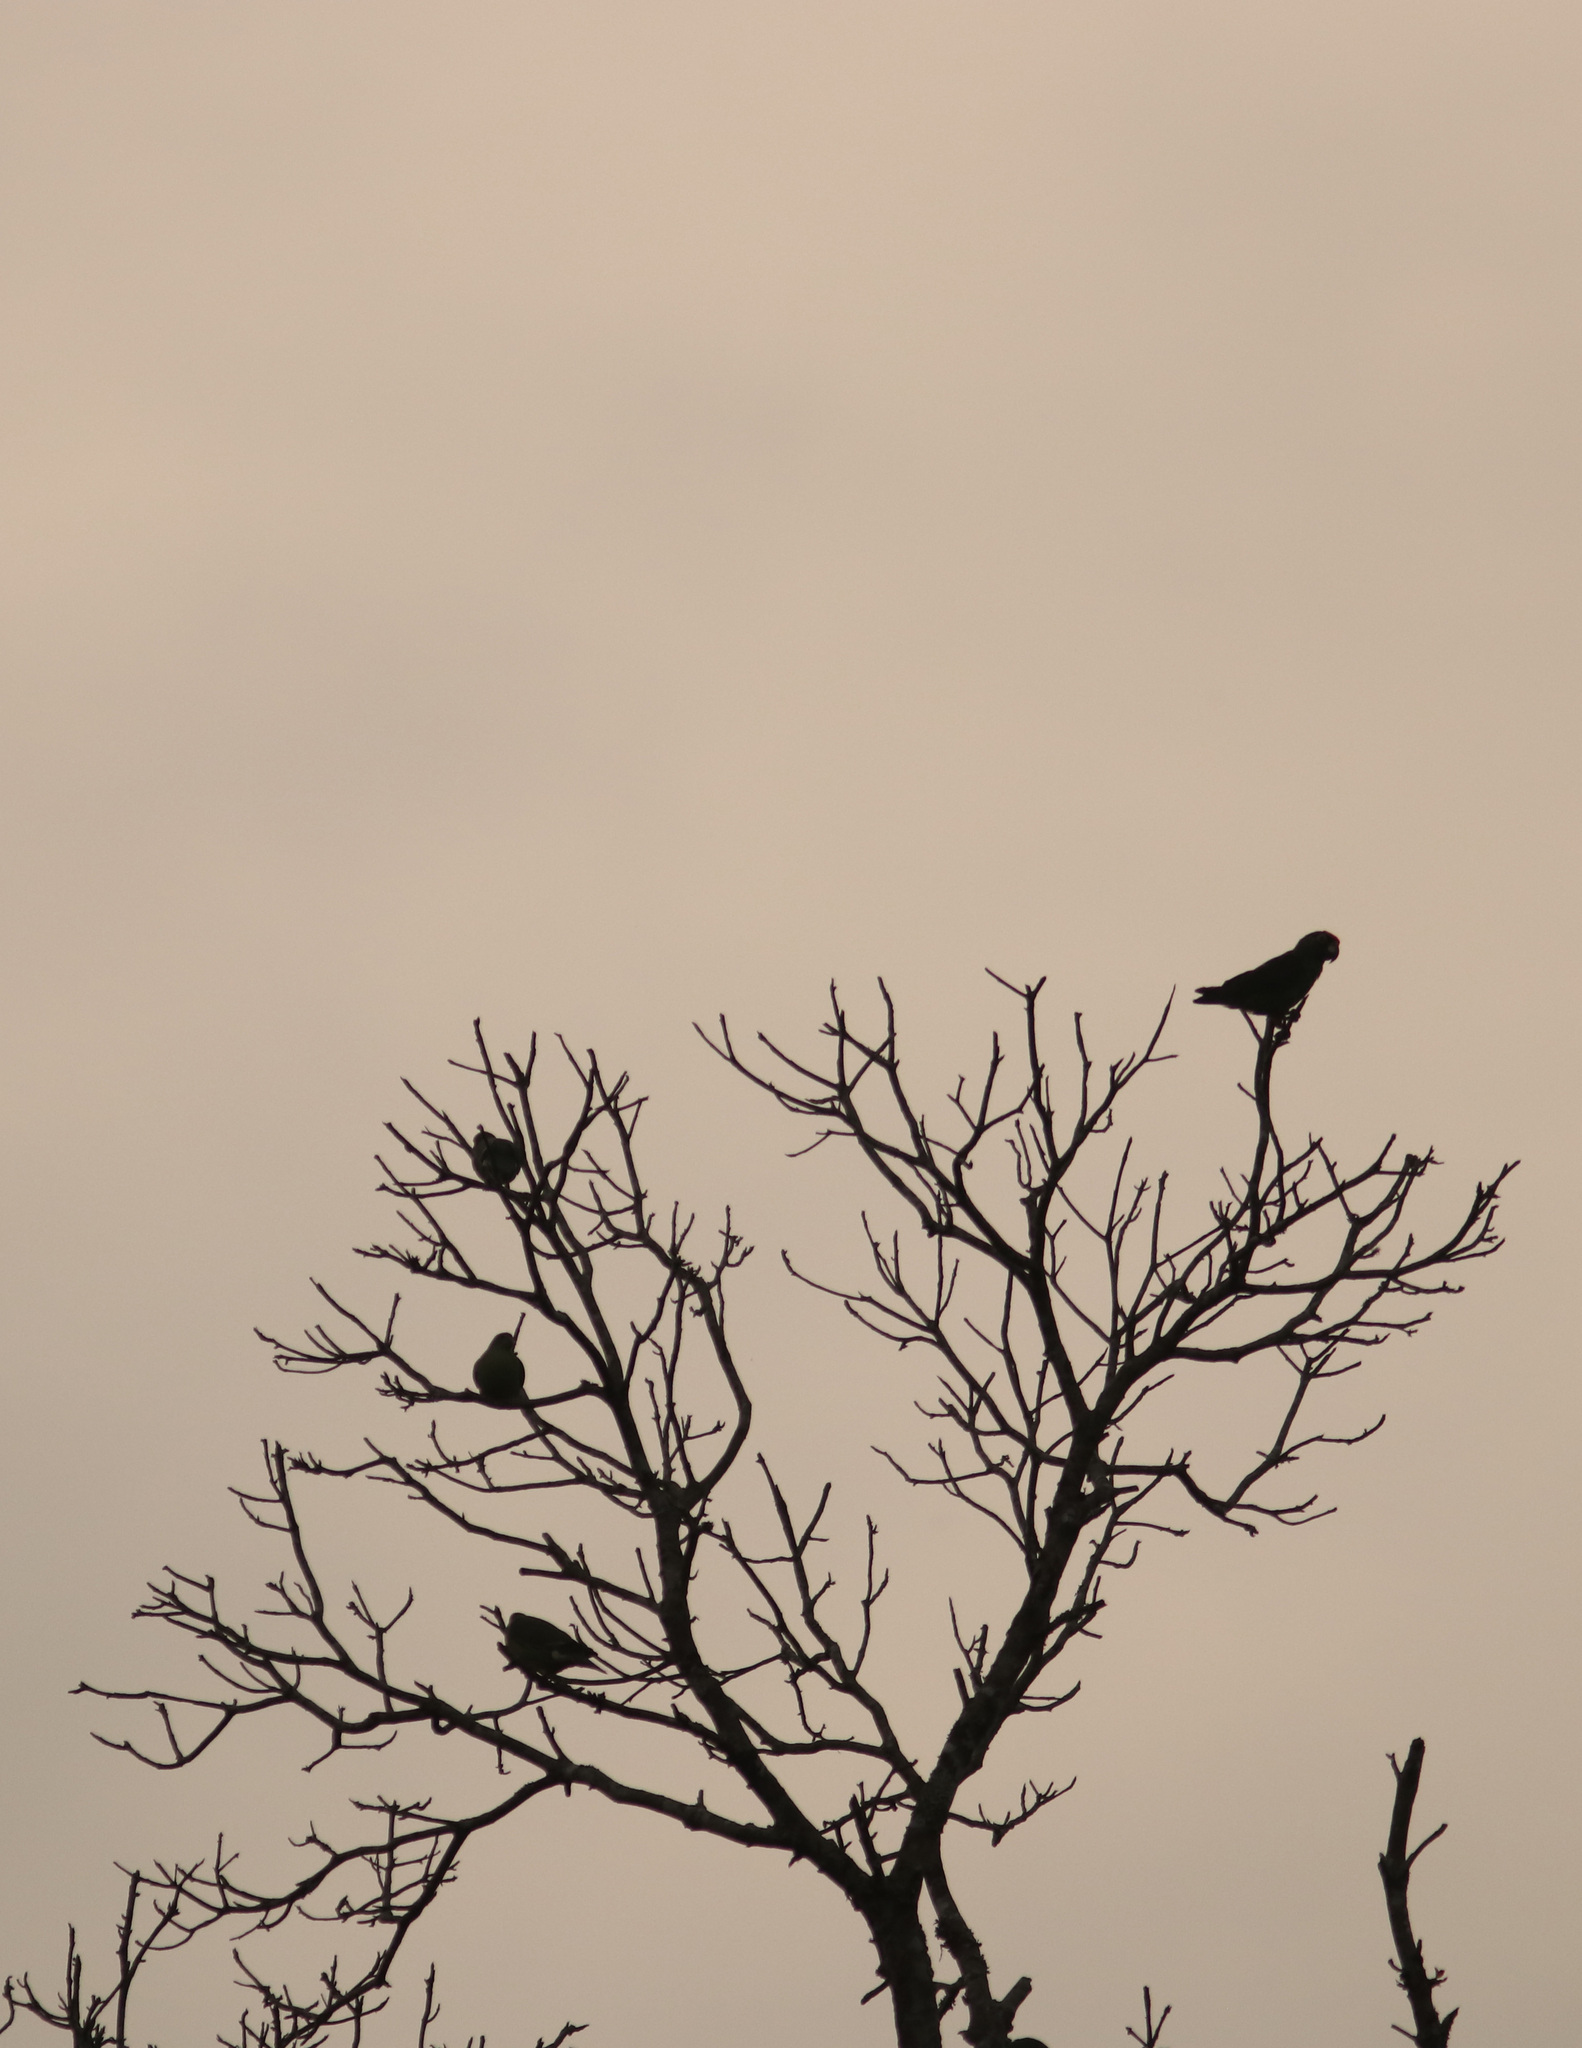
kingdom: Animalia
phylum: Chordata
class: Aves
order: Psittaciformes
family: Psittacidae
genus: Psittacus
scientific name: Psittacus erithacus
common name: Grey parrot
